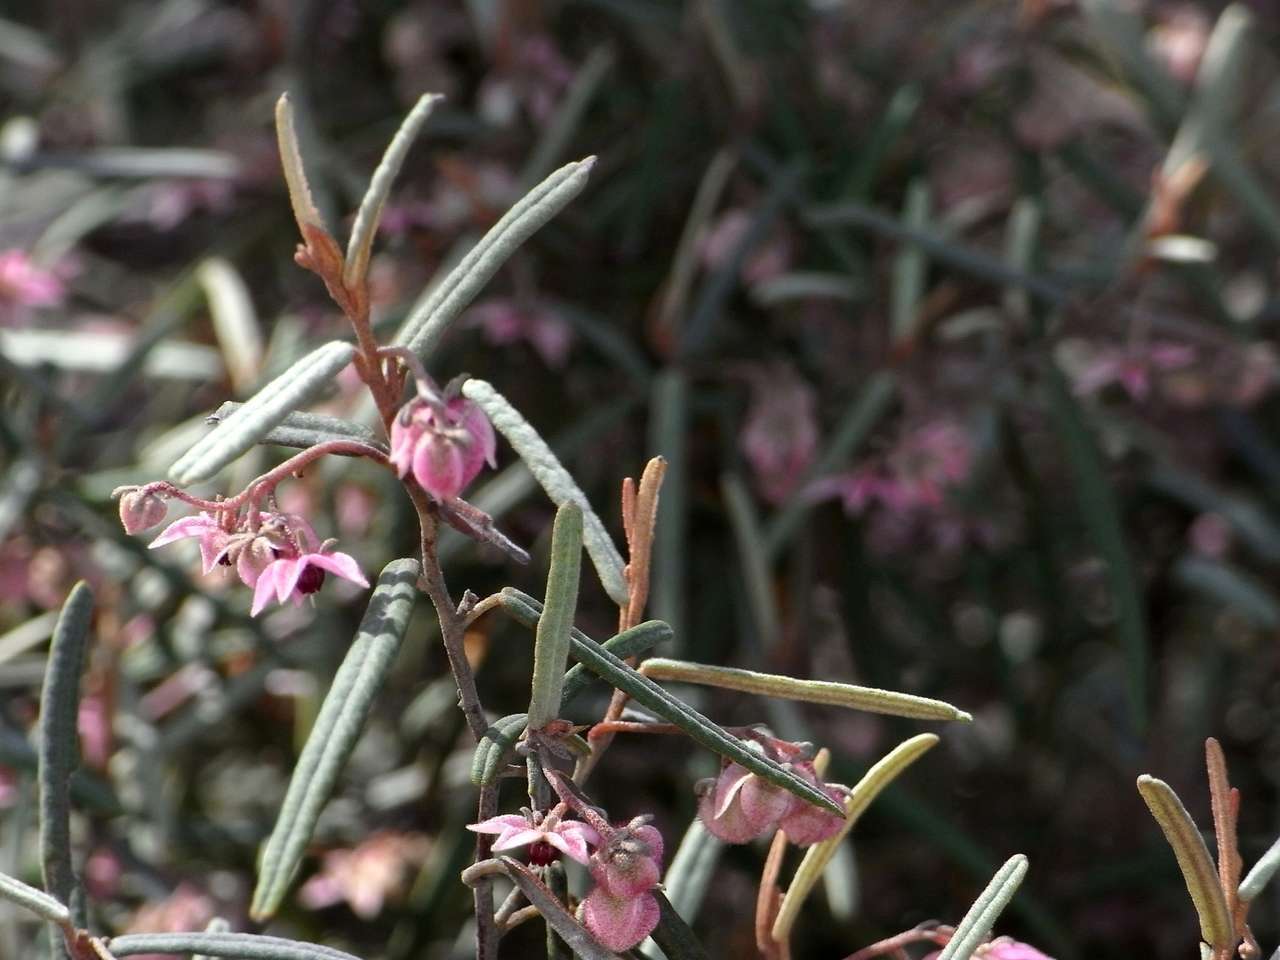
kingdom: Plantae
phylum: Tracheophyta
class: Magnoliopsida
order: Malvales
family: Malvaceae
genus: Lasiopetalum
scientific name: Lasiopetalum baueri
